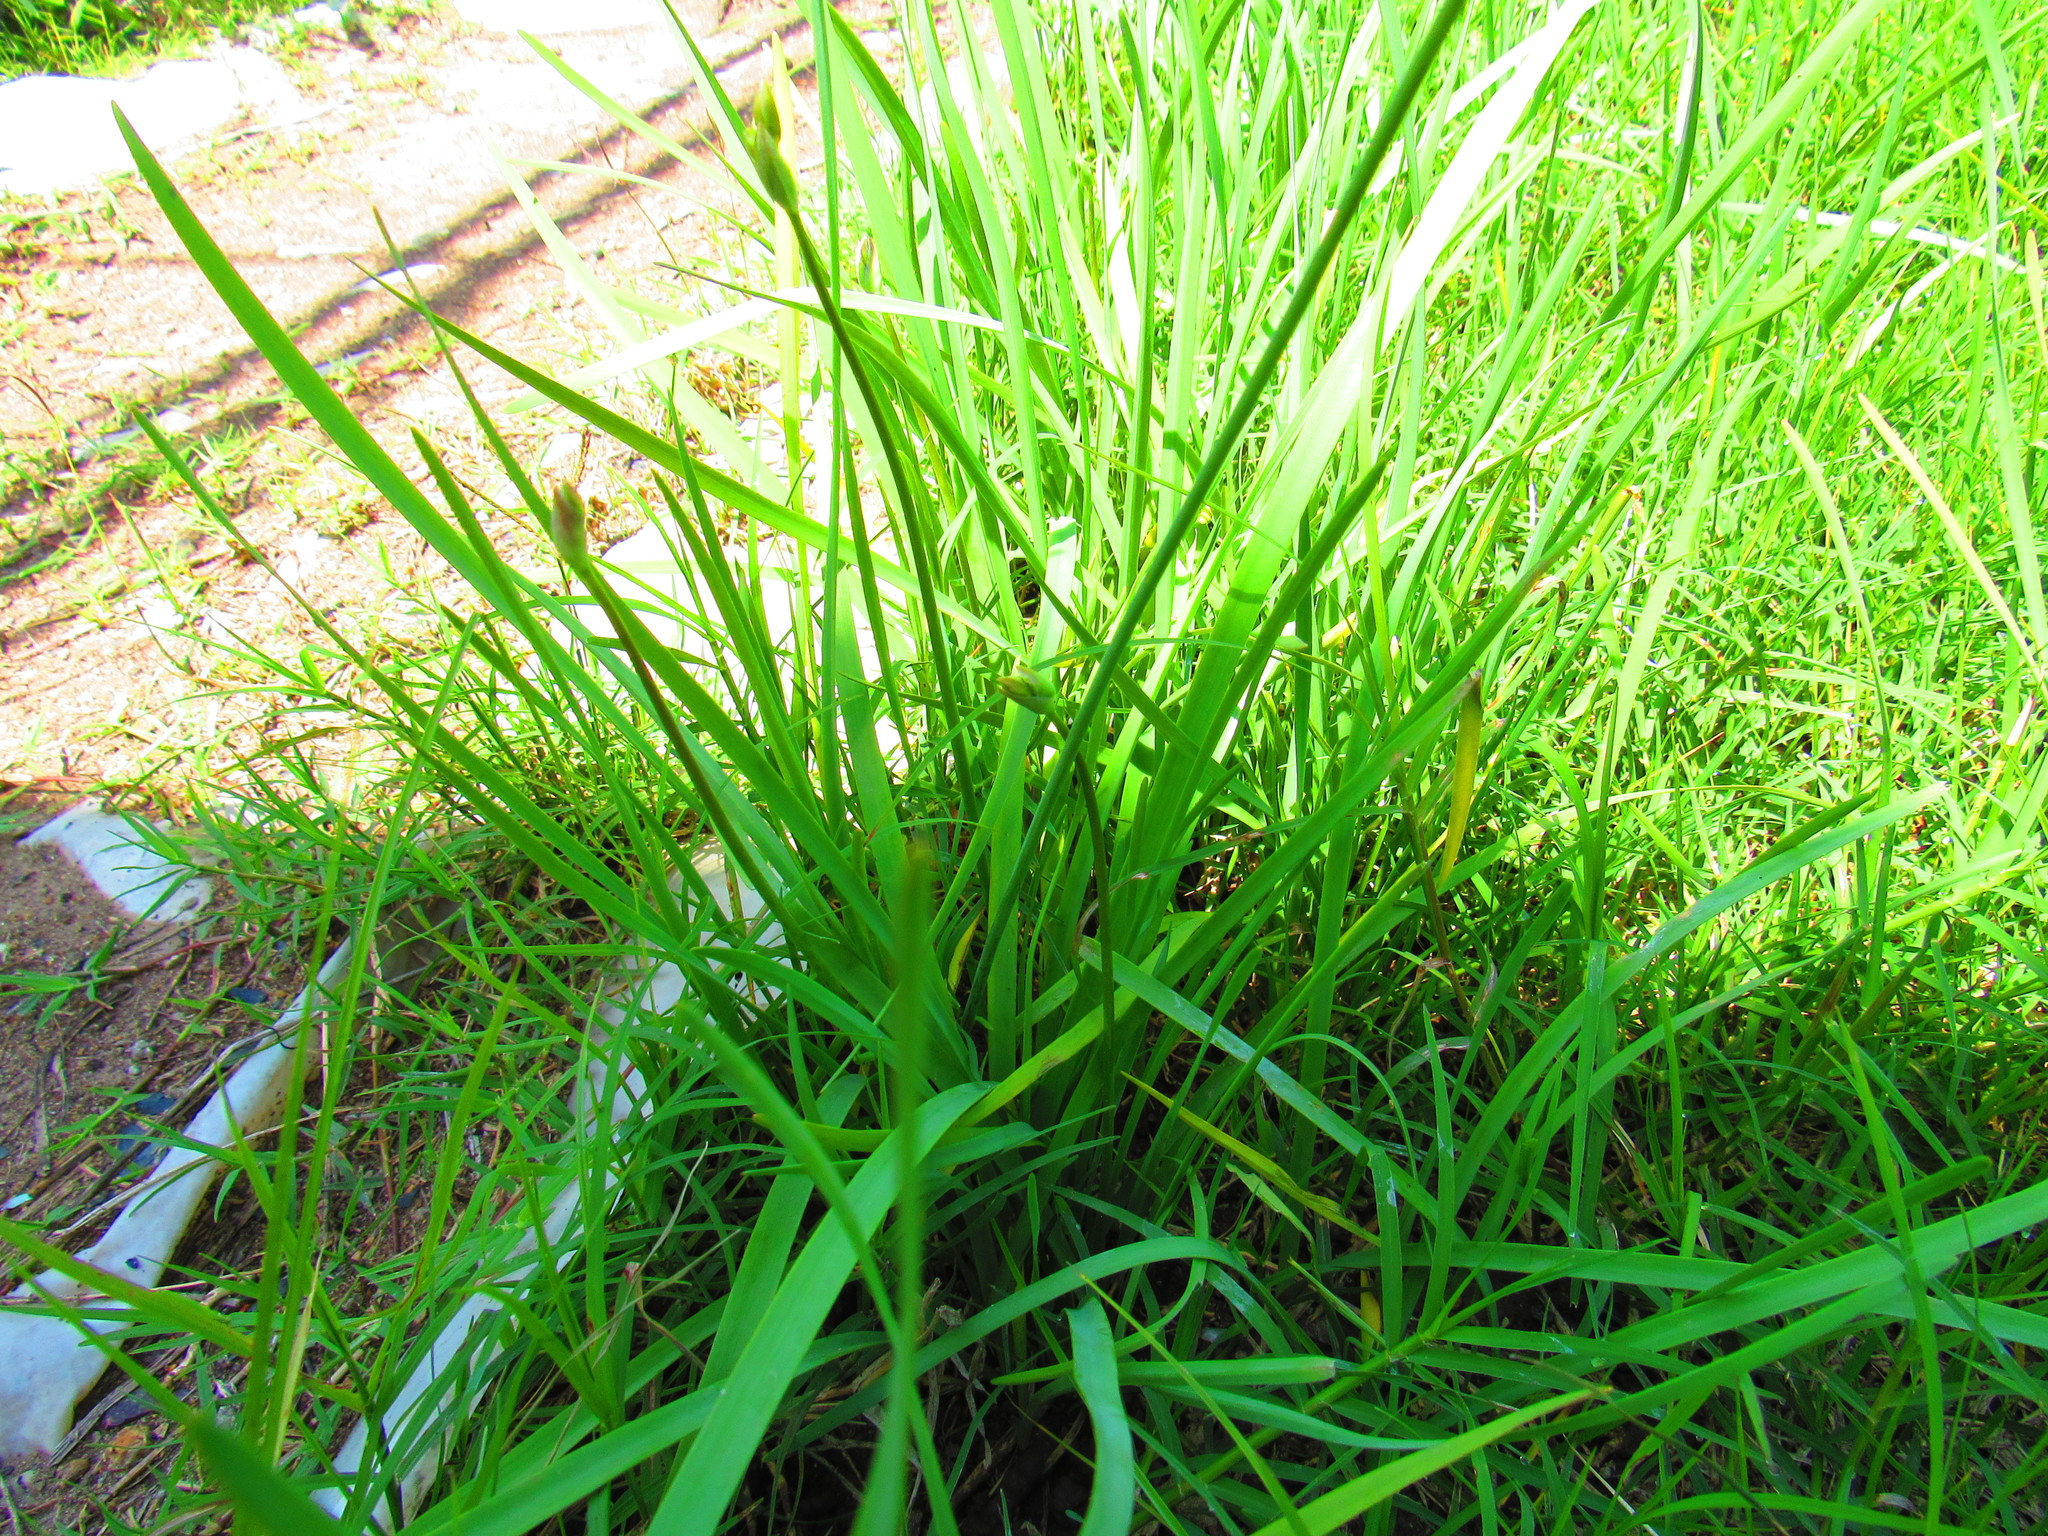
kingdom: Plantae
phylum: Tracheophyta
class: Liliopsida
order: Asparagales
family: Amaryllidaceae
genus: Nothoscordum
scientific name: Nothoscordum bivalve
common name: Crow-poison
